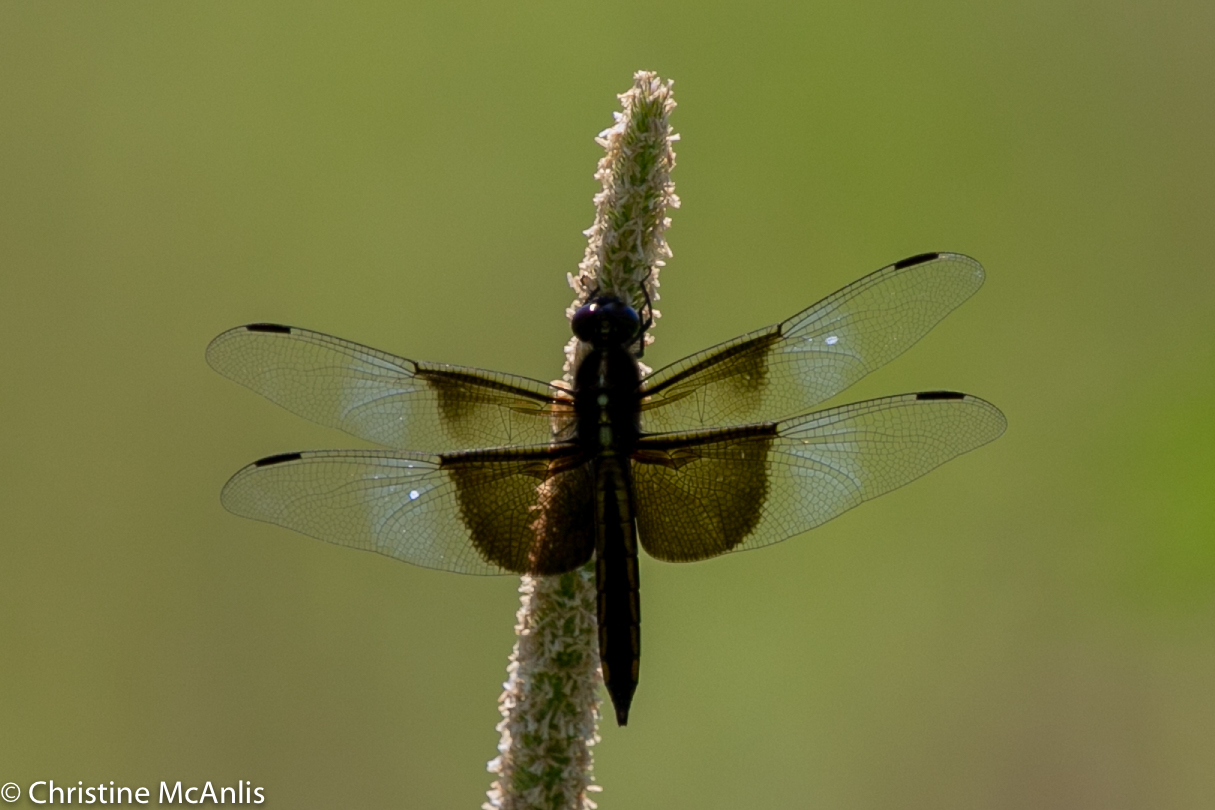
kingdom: Animalia
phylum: Arthropoda
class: Insecta
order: Odonata
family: Libellulidae
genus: Libellula
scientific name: Libellula luctuosa
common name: Widow skimmer
